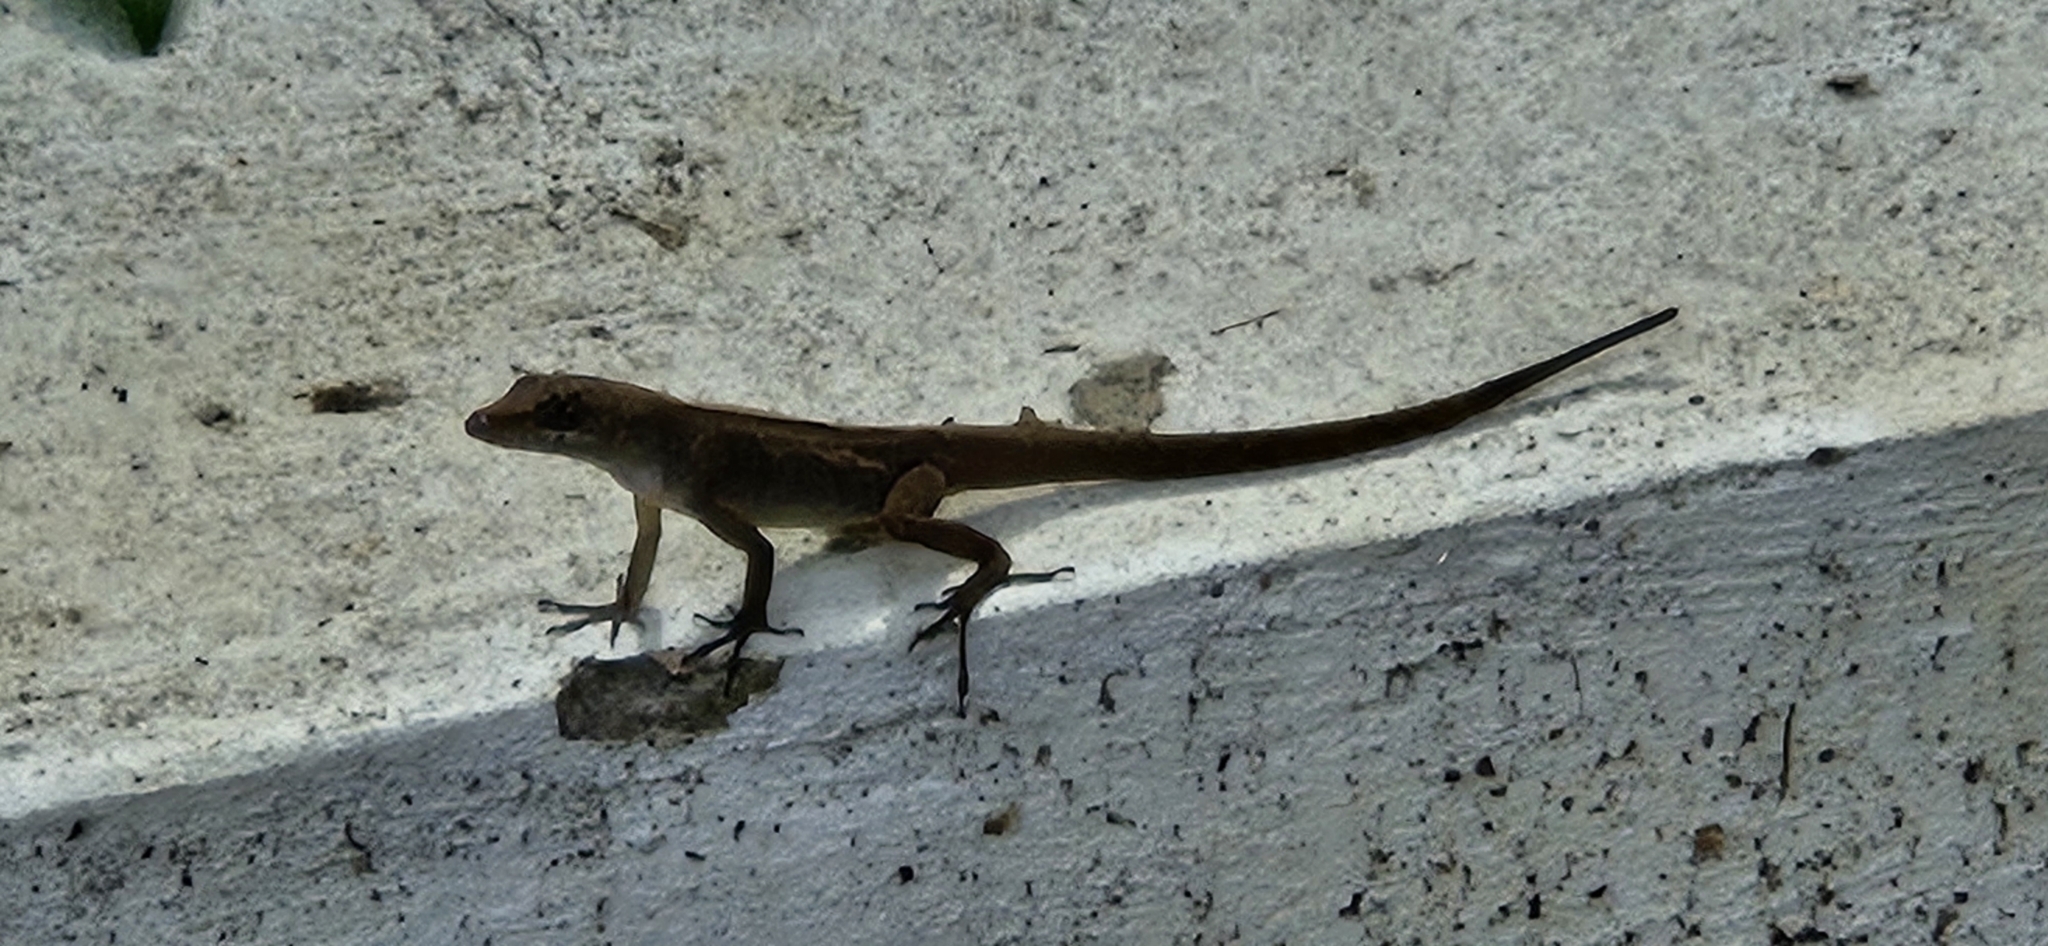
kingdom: Animalia
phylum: Chordata
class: Squamata
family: Dactyloidae
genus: Anolis
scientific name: Anolis sagrei
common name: Brown anole
